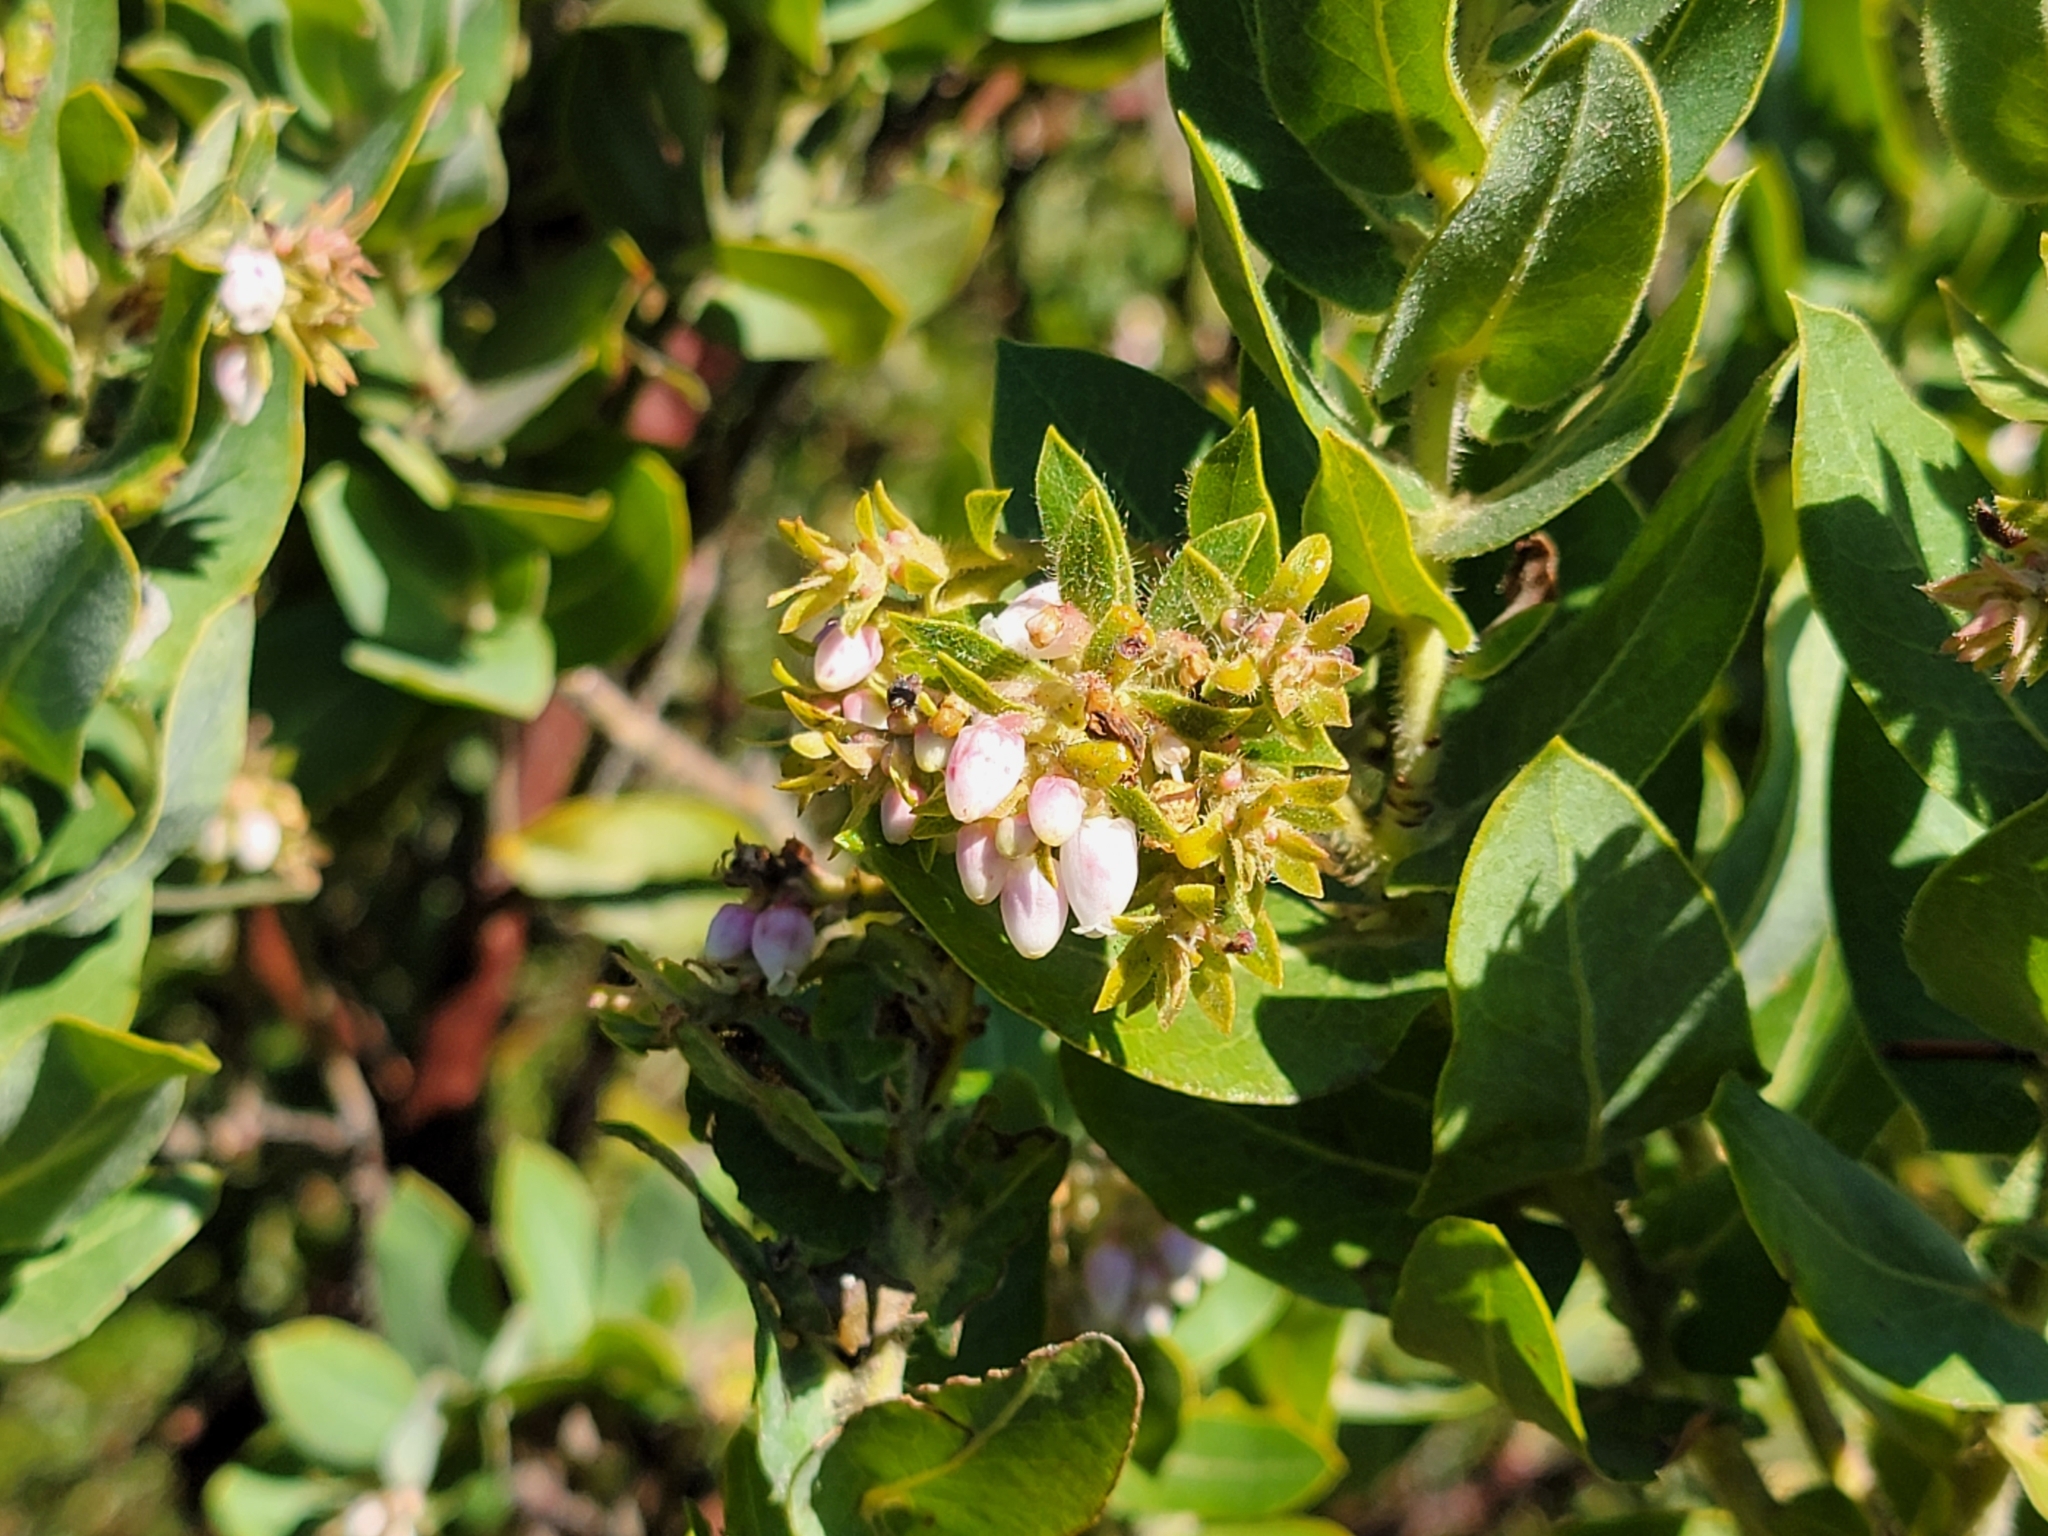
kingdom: Plantae
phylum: Tracheophyta
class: Magnoliopsida
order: Ericales
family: Ericaceae
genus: Arctostaphylos
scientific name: Arctostaphylos regismontana
